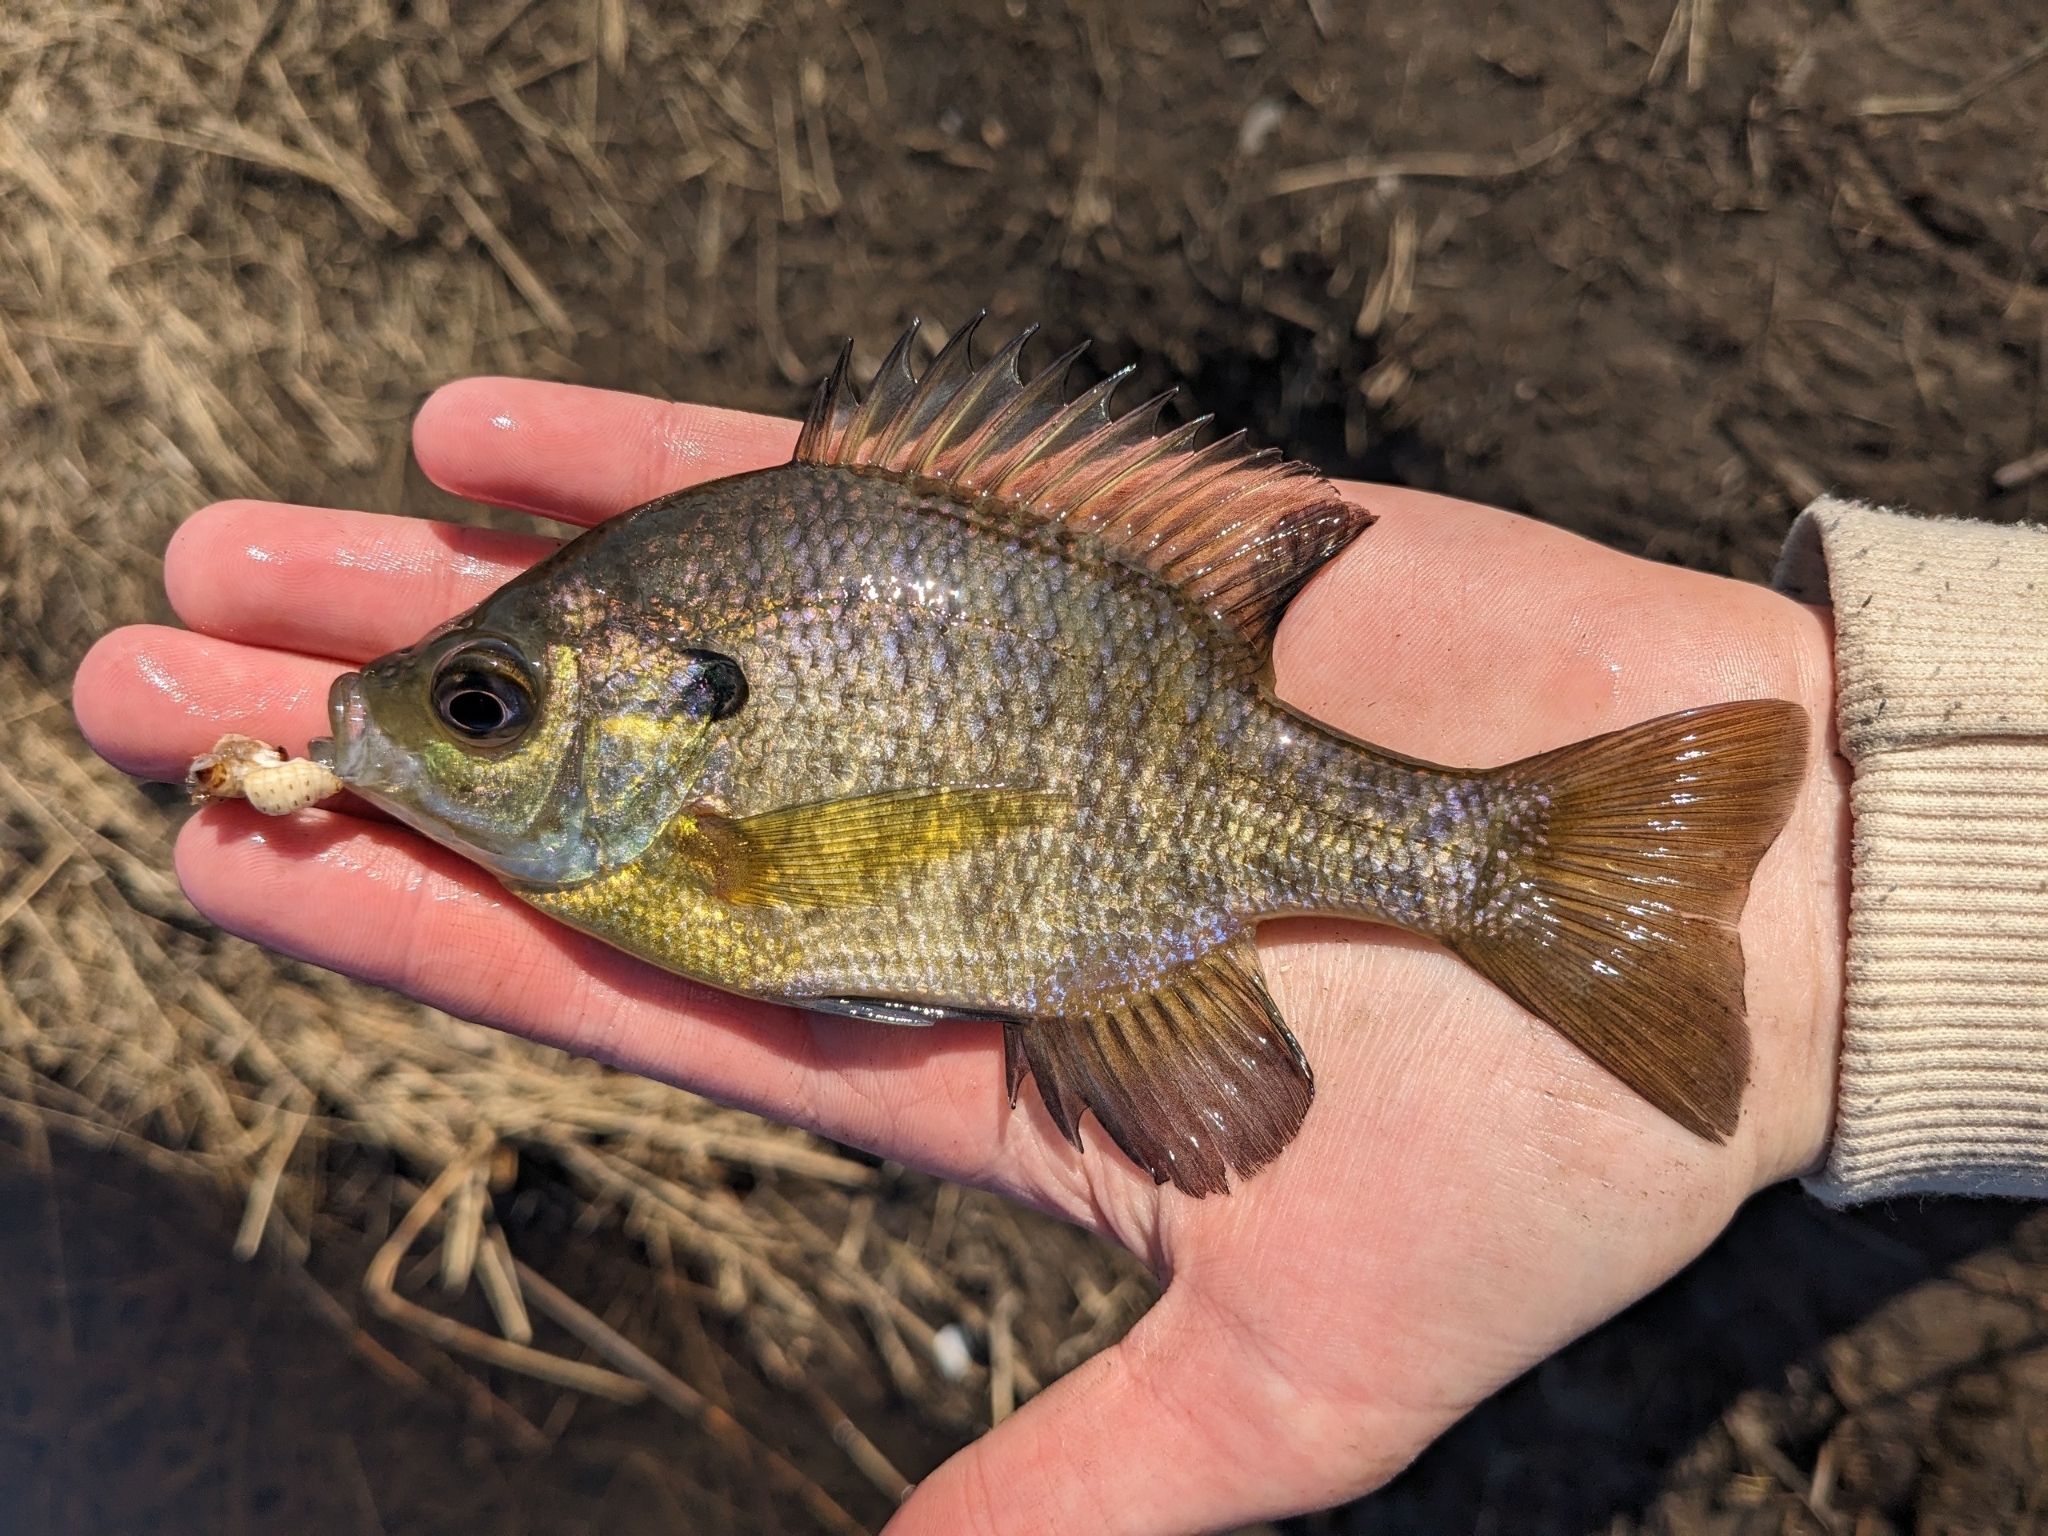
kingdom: Animalia
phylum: Chordata
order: Perciformes
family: Centrarchidae
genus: Lepomis
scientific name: Lepomis macrochirus
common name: Bluegill
